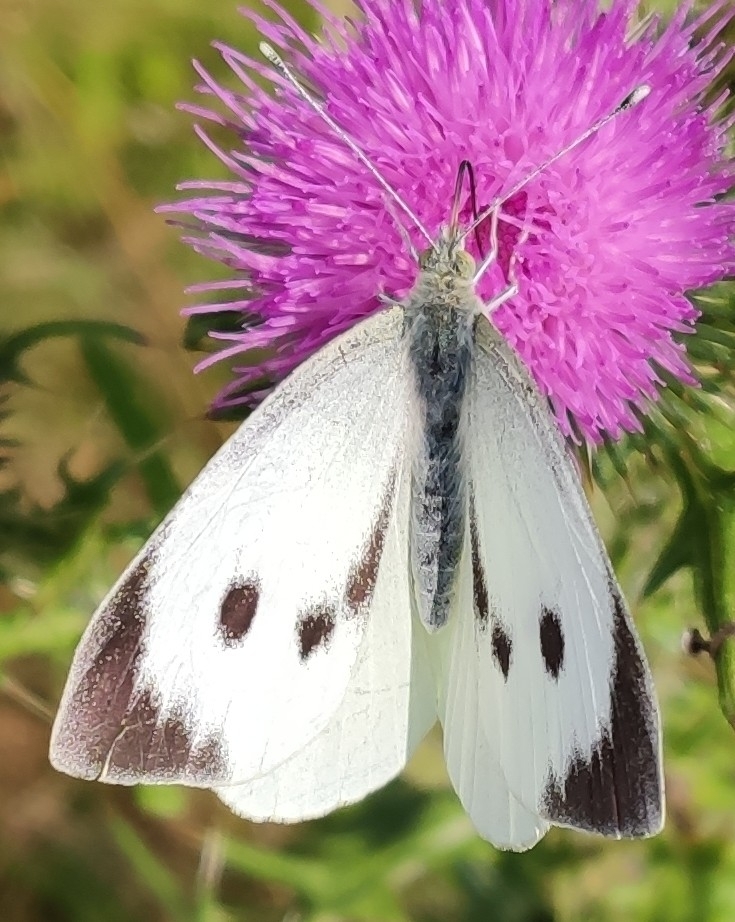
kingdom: Animalia
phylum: Arthropoda
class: Insecta
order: Lepidoptera
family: Pieridae
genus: Pieris
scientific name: Pieris brassicae
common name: Large white
